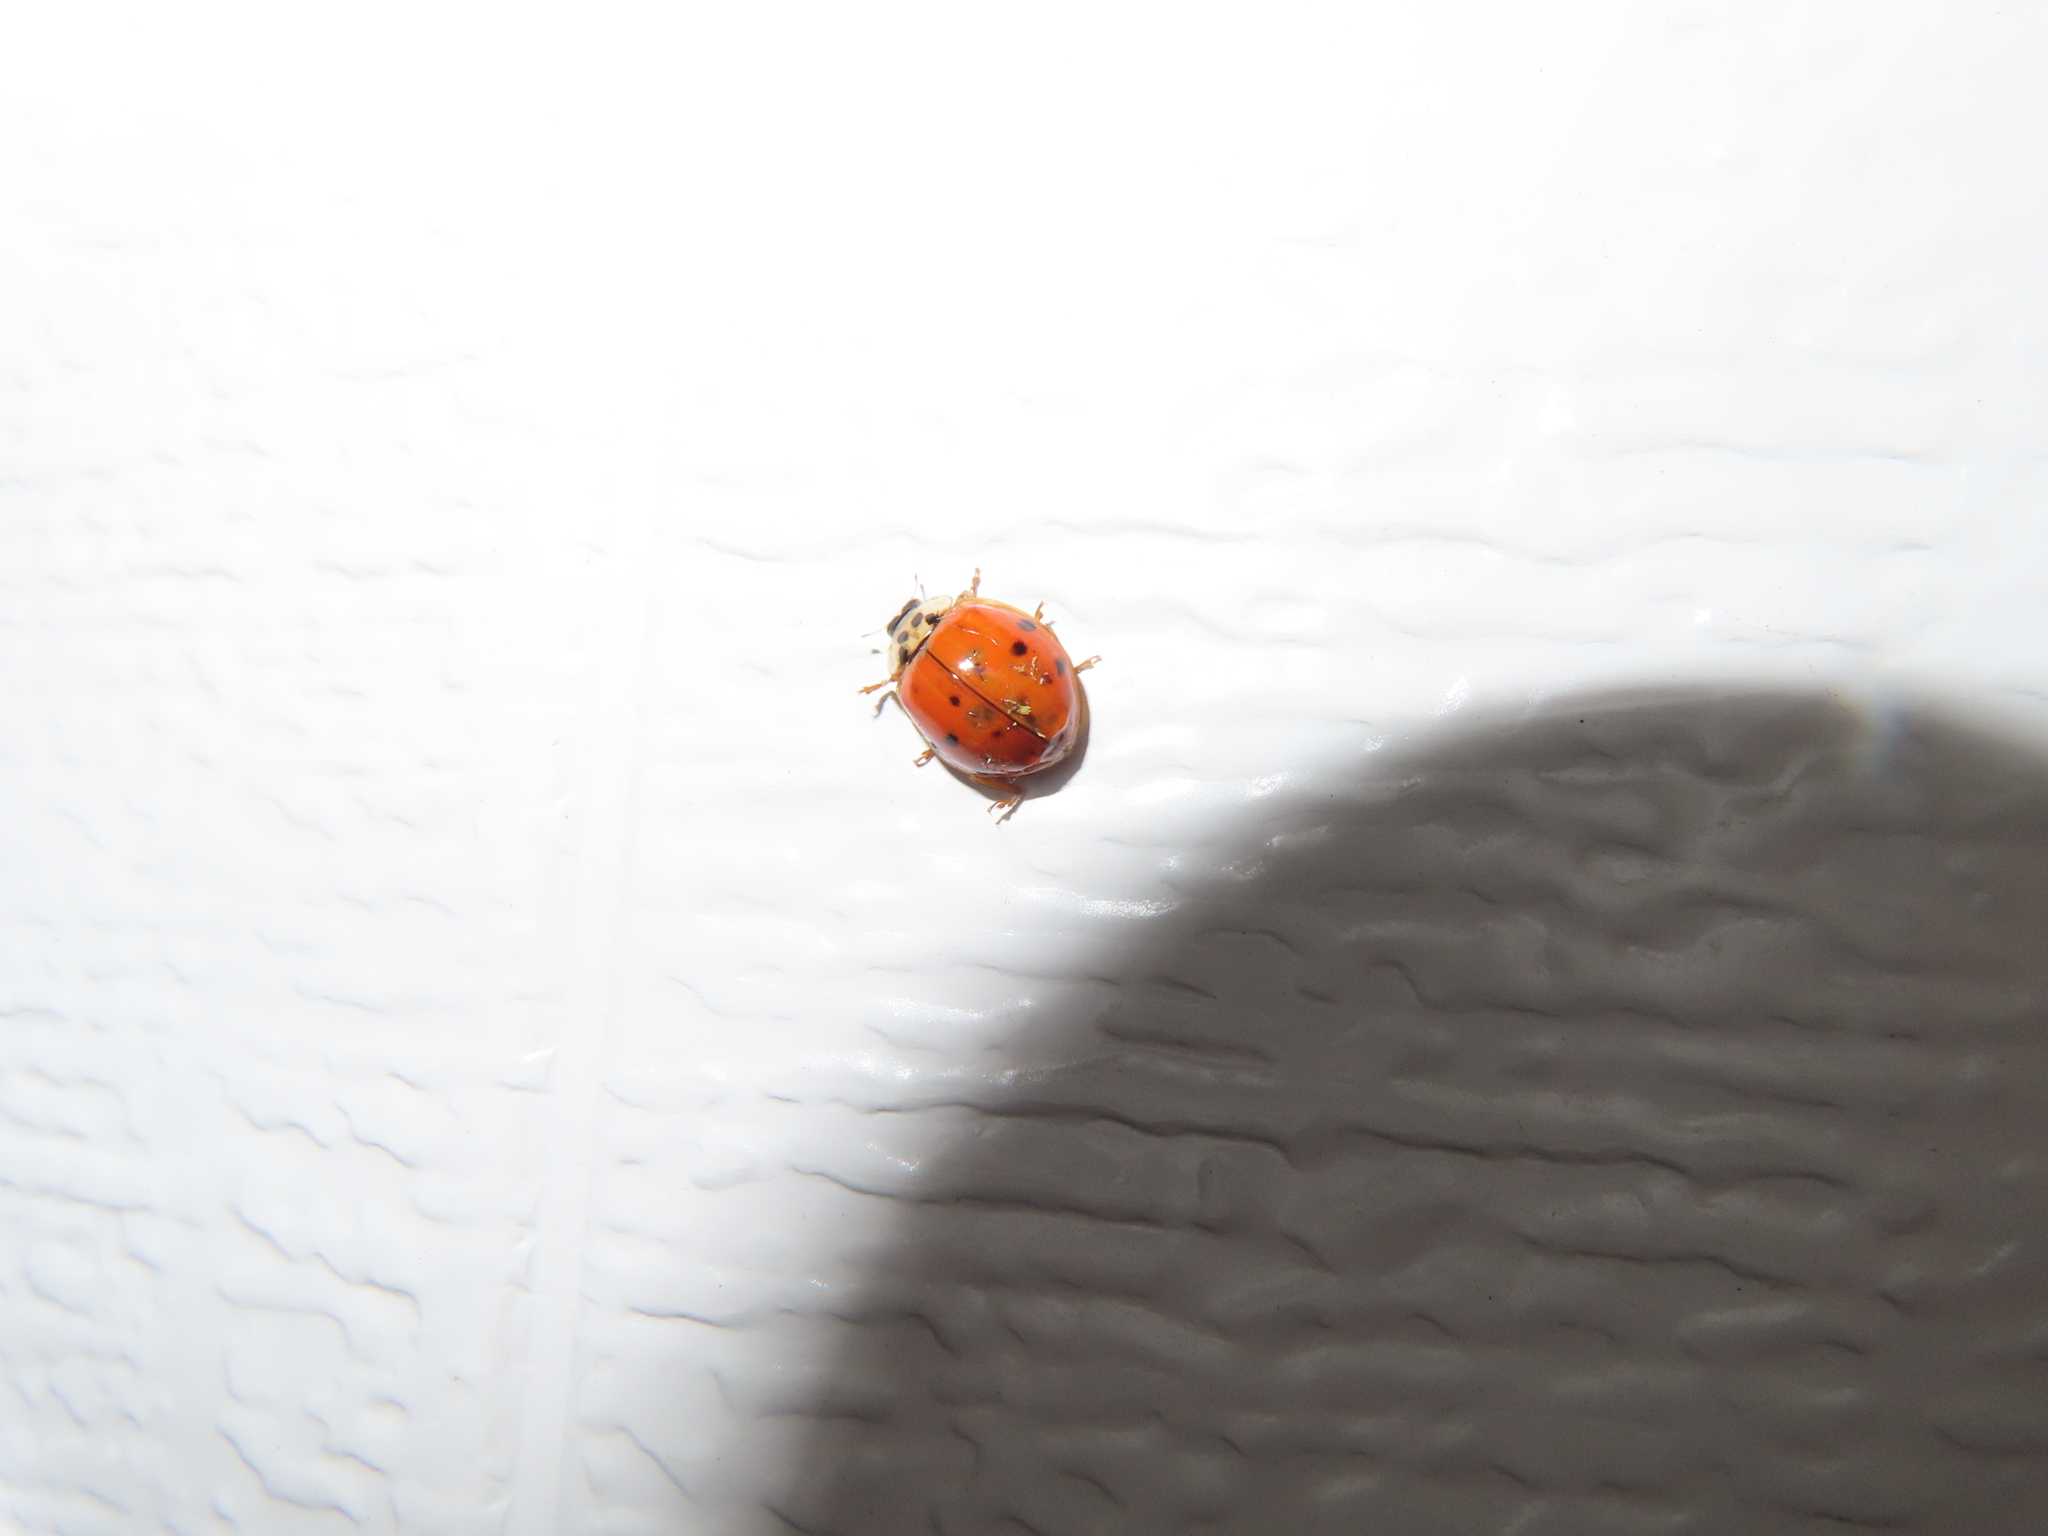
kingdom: Animalia
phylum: Arthropoda
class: Insecta
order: Coleoptera
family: Coccinellidae
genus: Harmonia
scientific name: Harmonia axyridis
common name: Harlequin ladybird
